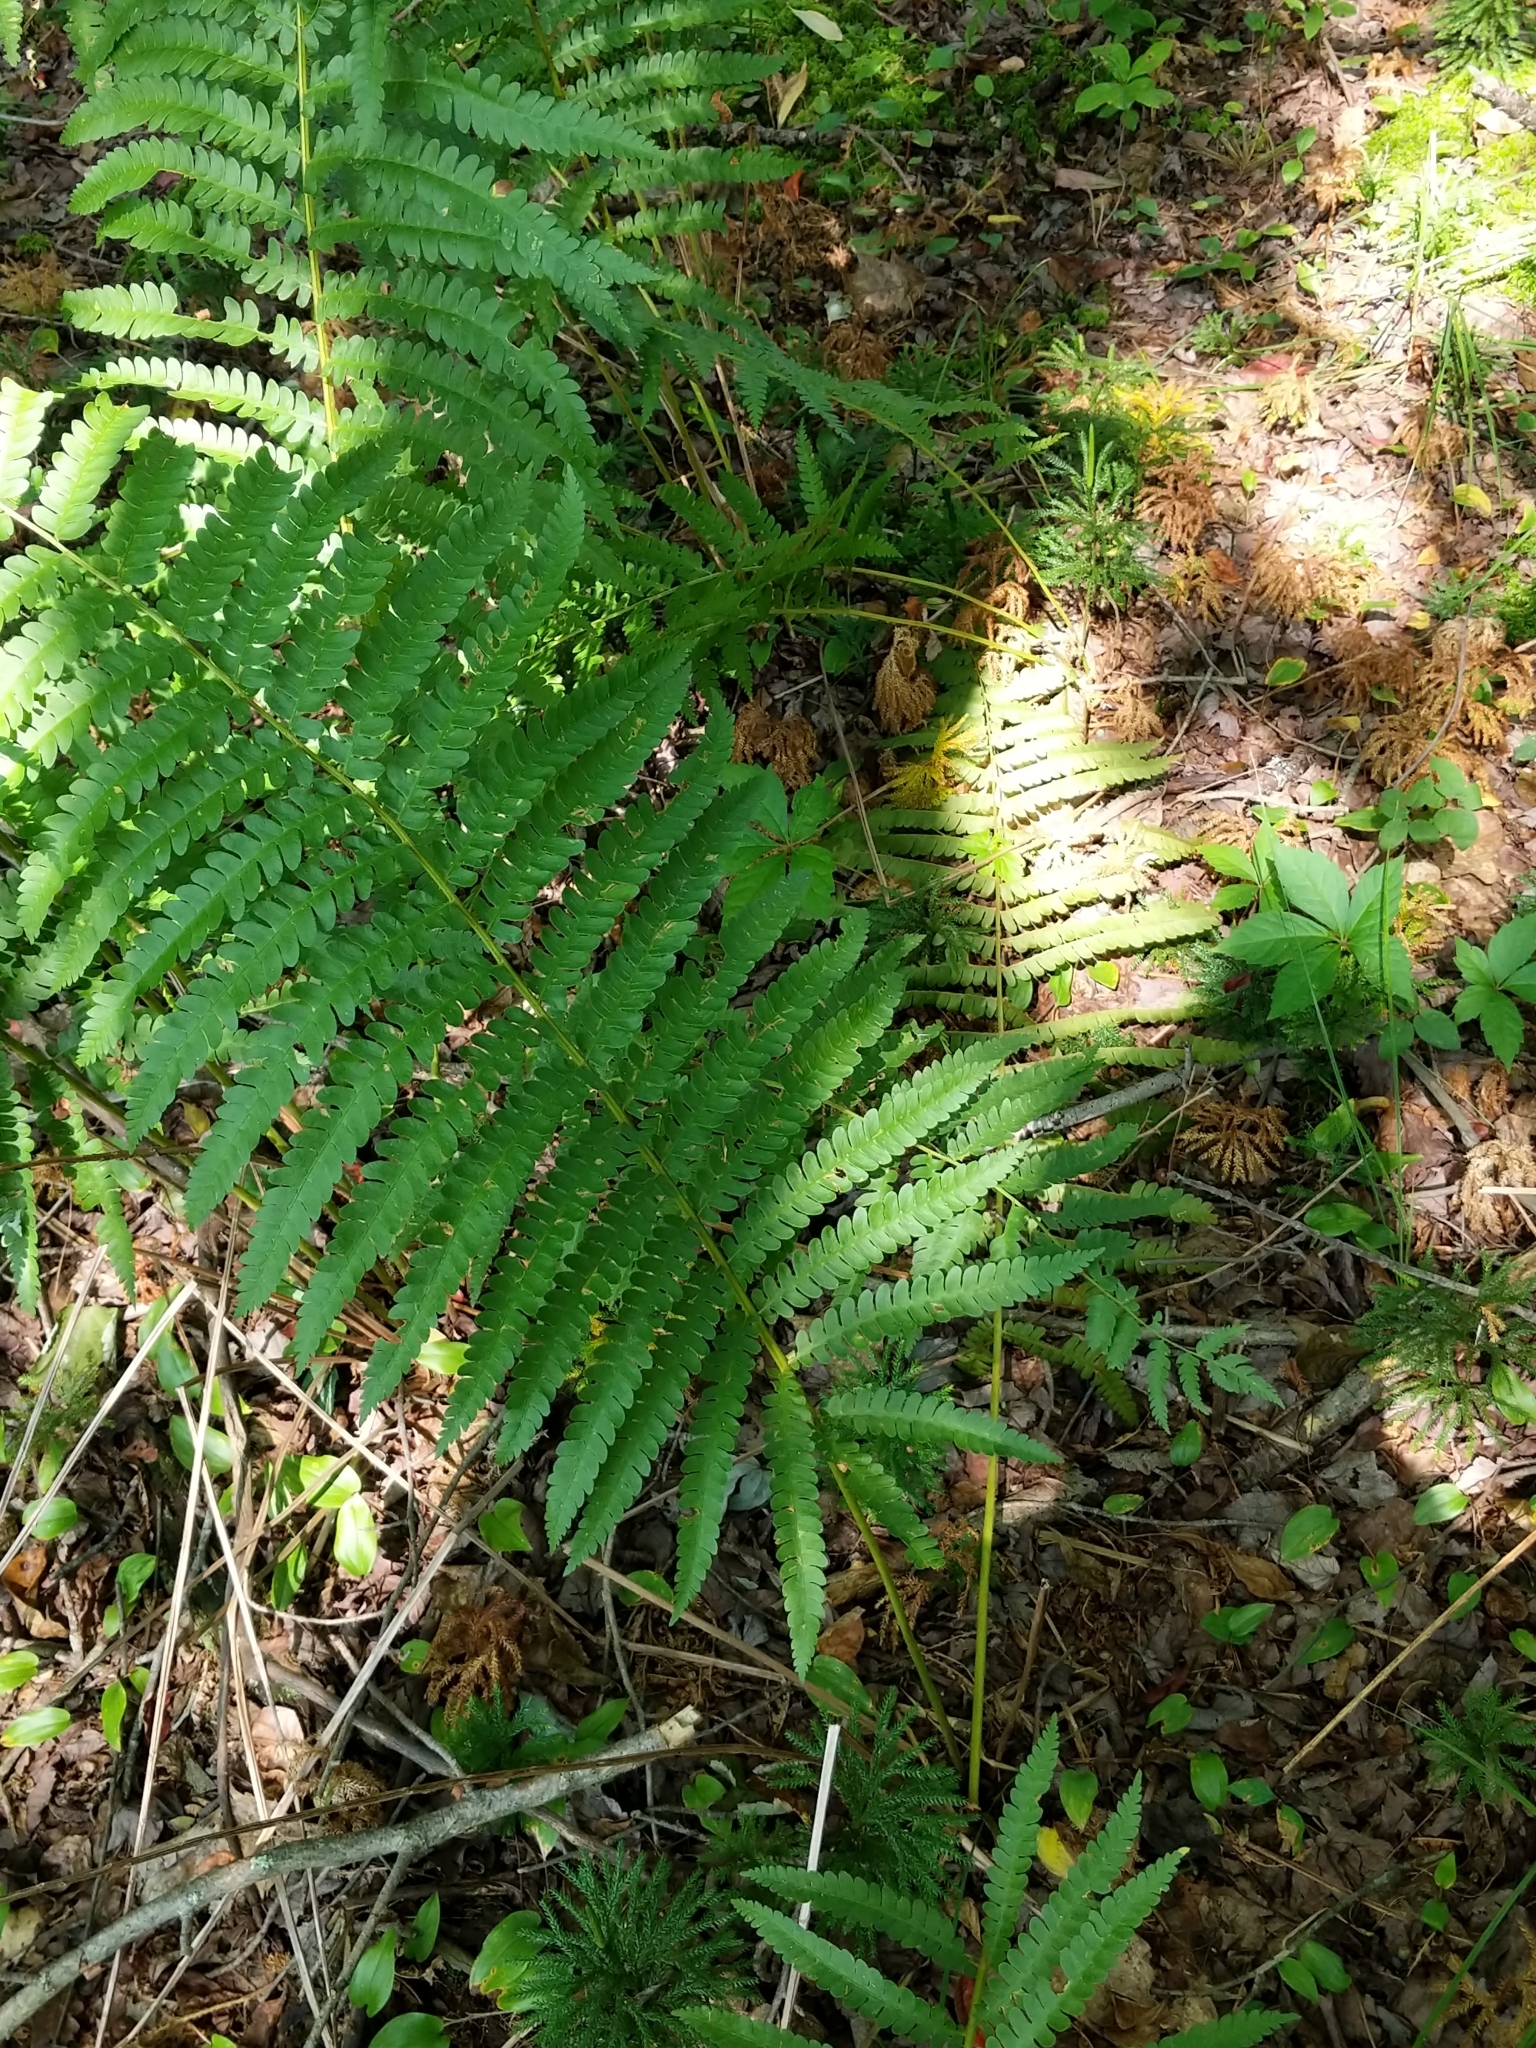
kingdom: Plantae
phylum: Tracheophyta
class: Polypodiopsida
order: Osmundales
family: Osmundaceae
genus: Osmundastrum
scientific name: Osmundastrum cinnamomeum
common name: Cinnamon fern
